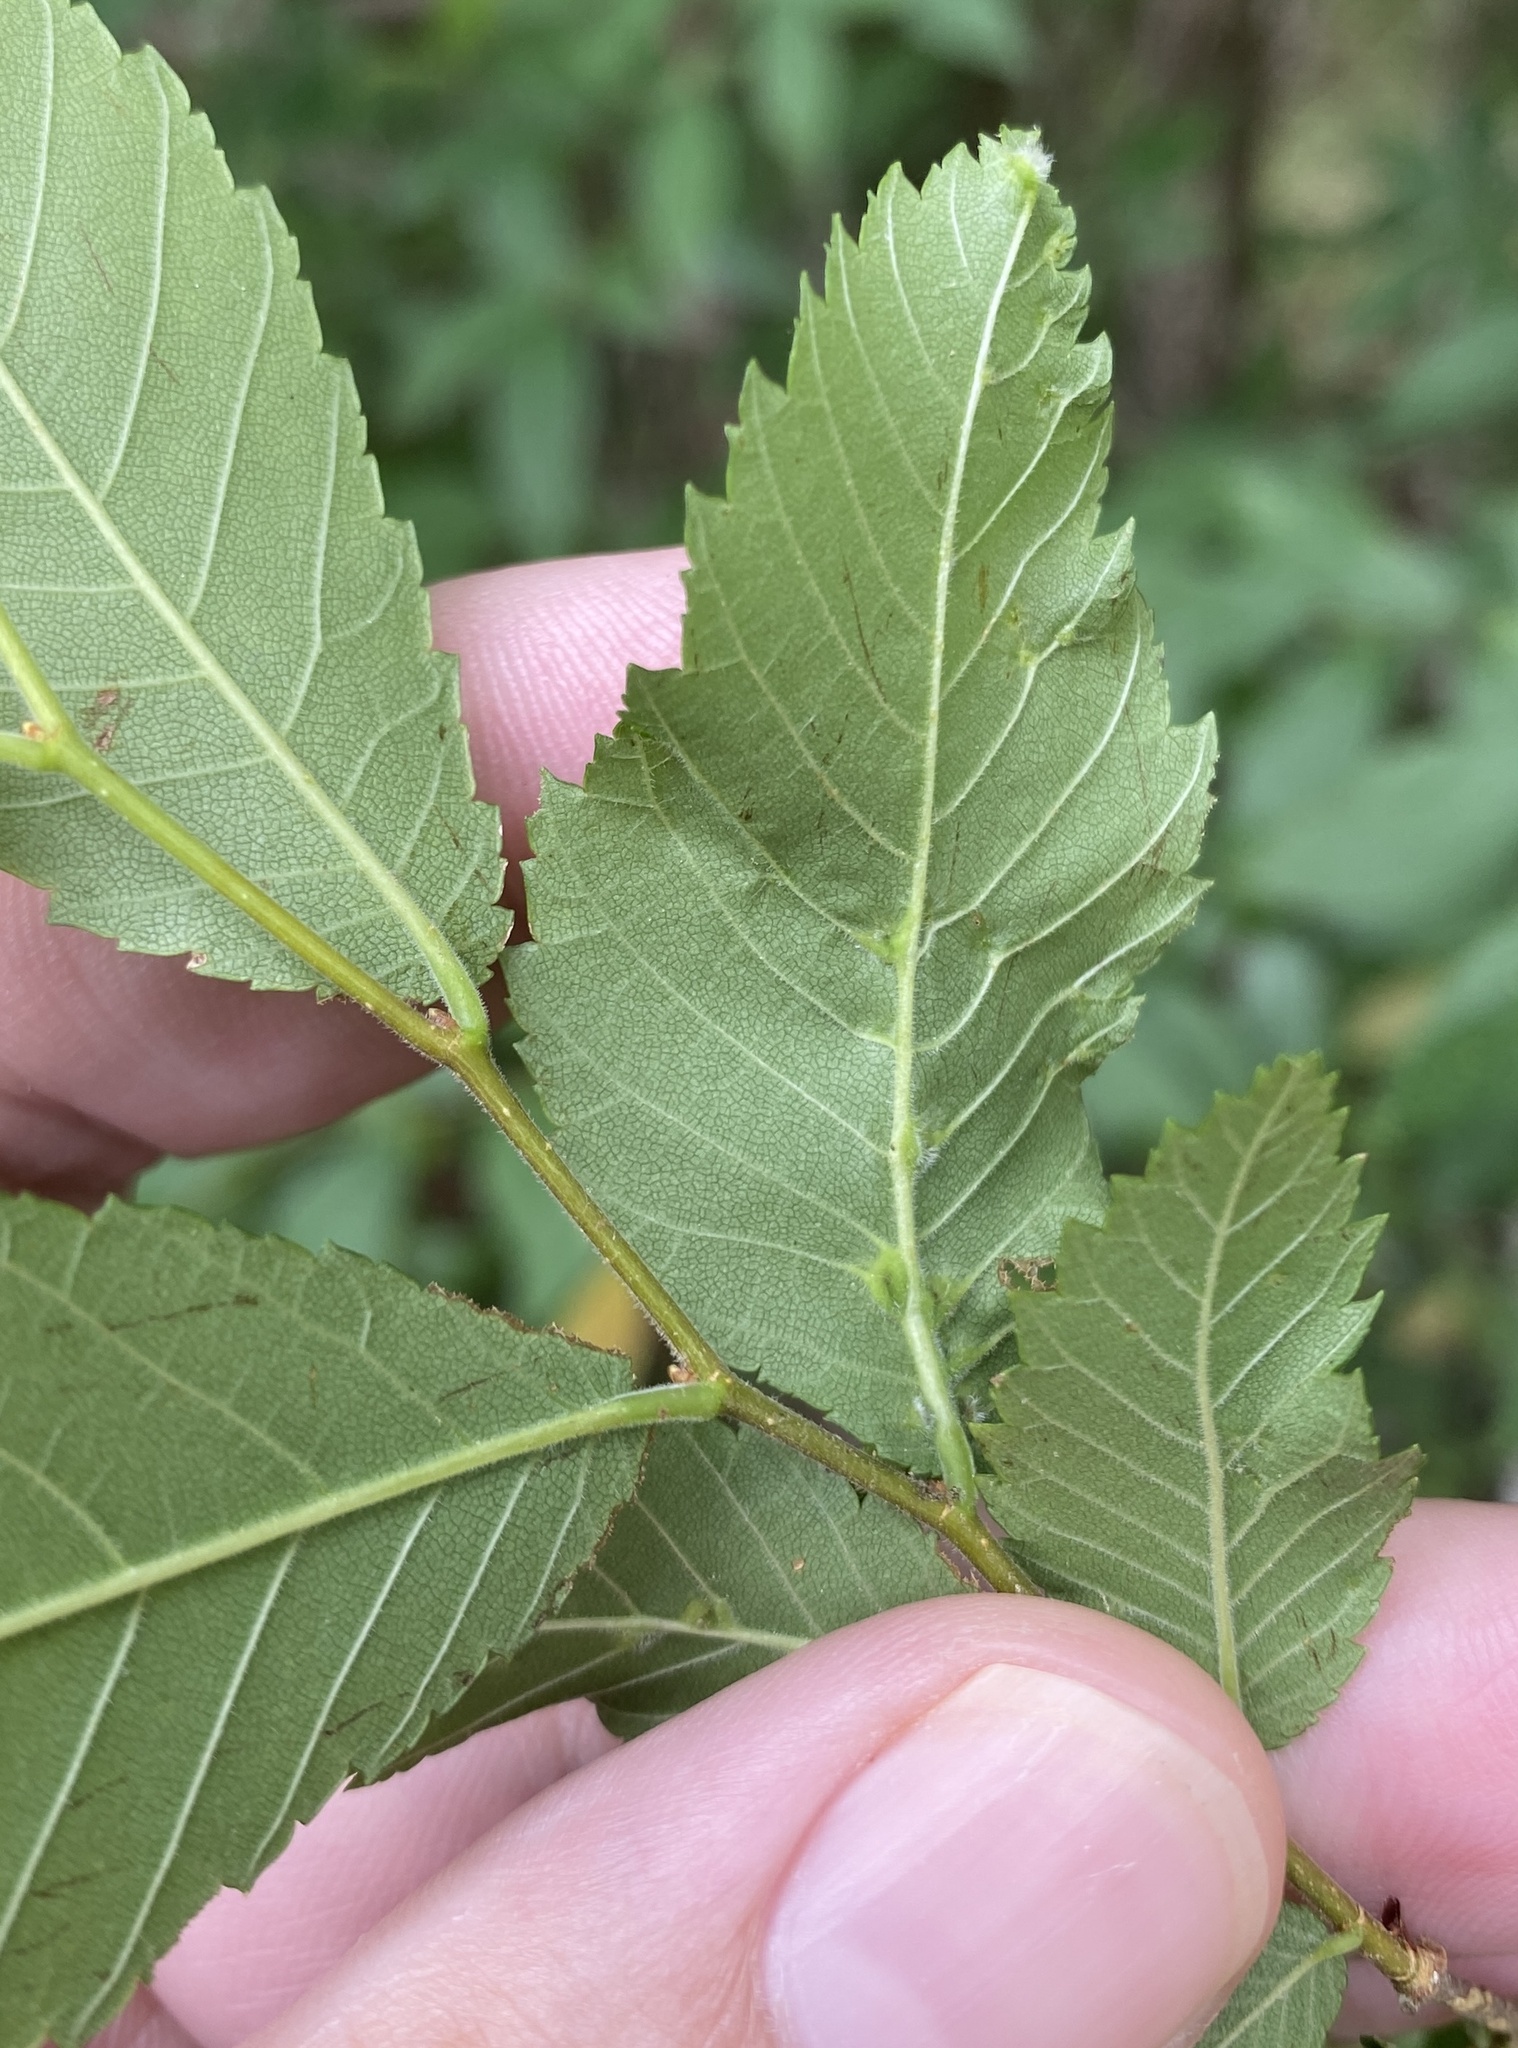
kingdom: Animalia
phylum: Arthropoda
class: Arachnida
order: Trombidiformes
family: Eriophyidae
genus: Aceria
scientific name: Aceria
